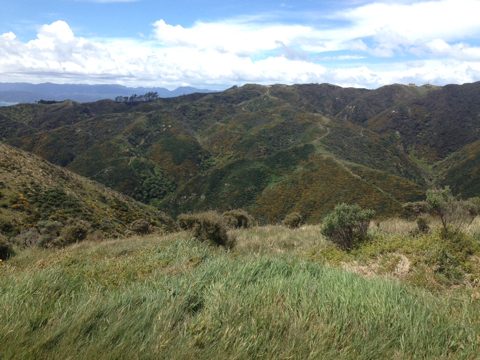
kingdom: Plantae
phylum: Tracheophyta
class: Magnoliopsida
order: Fabales
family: Fabaceae
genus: Ulex
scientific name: Ulex europaeus
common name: Common gorse
